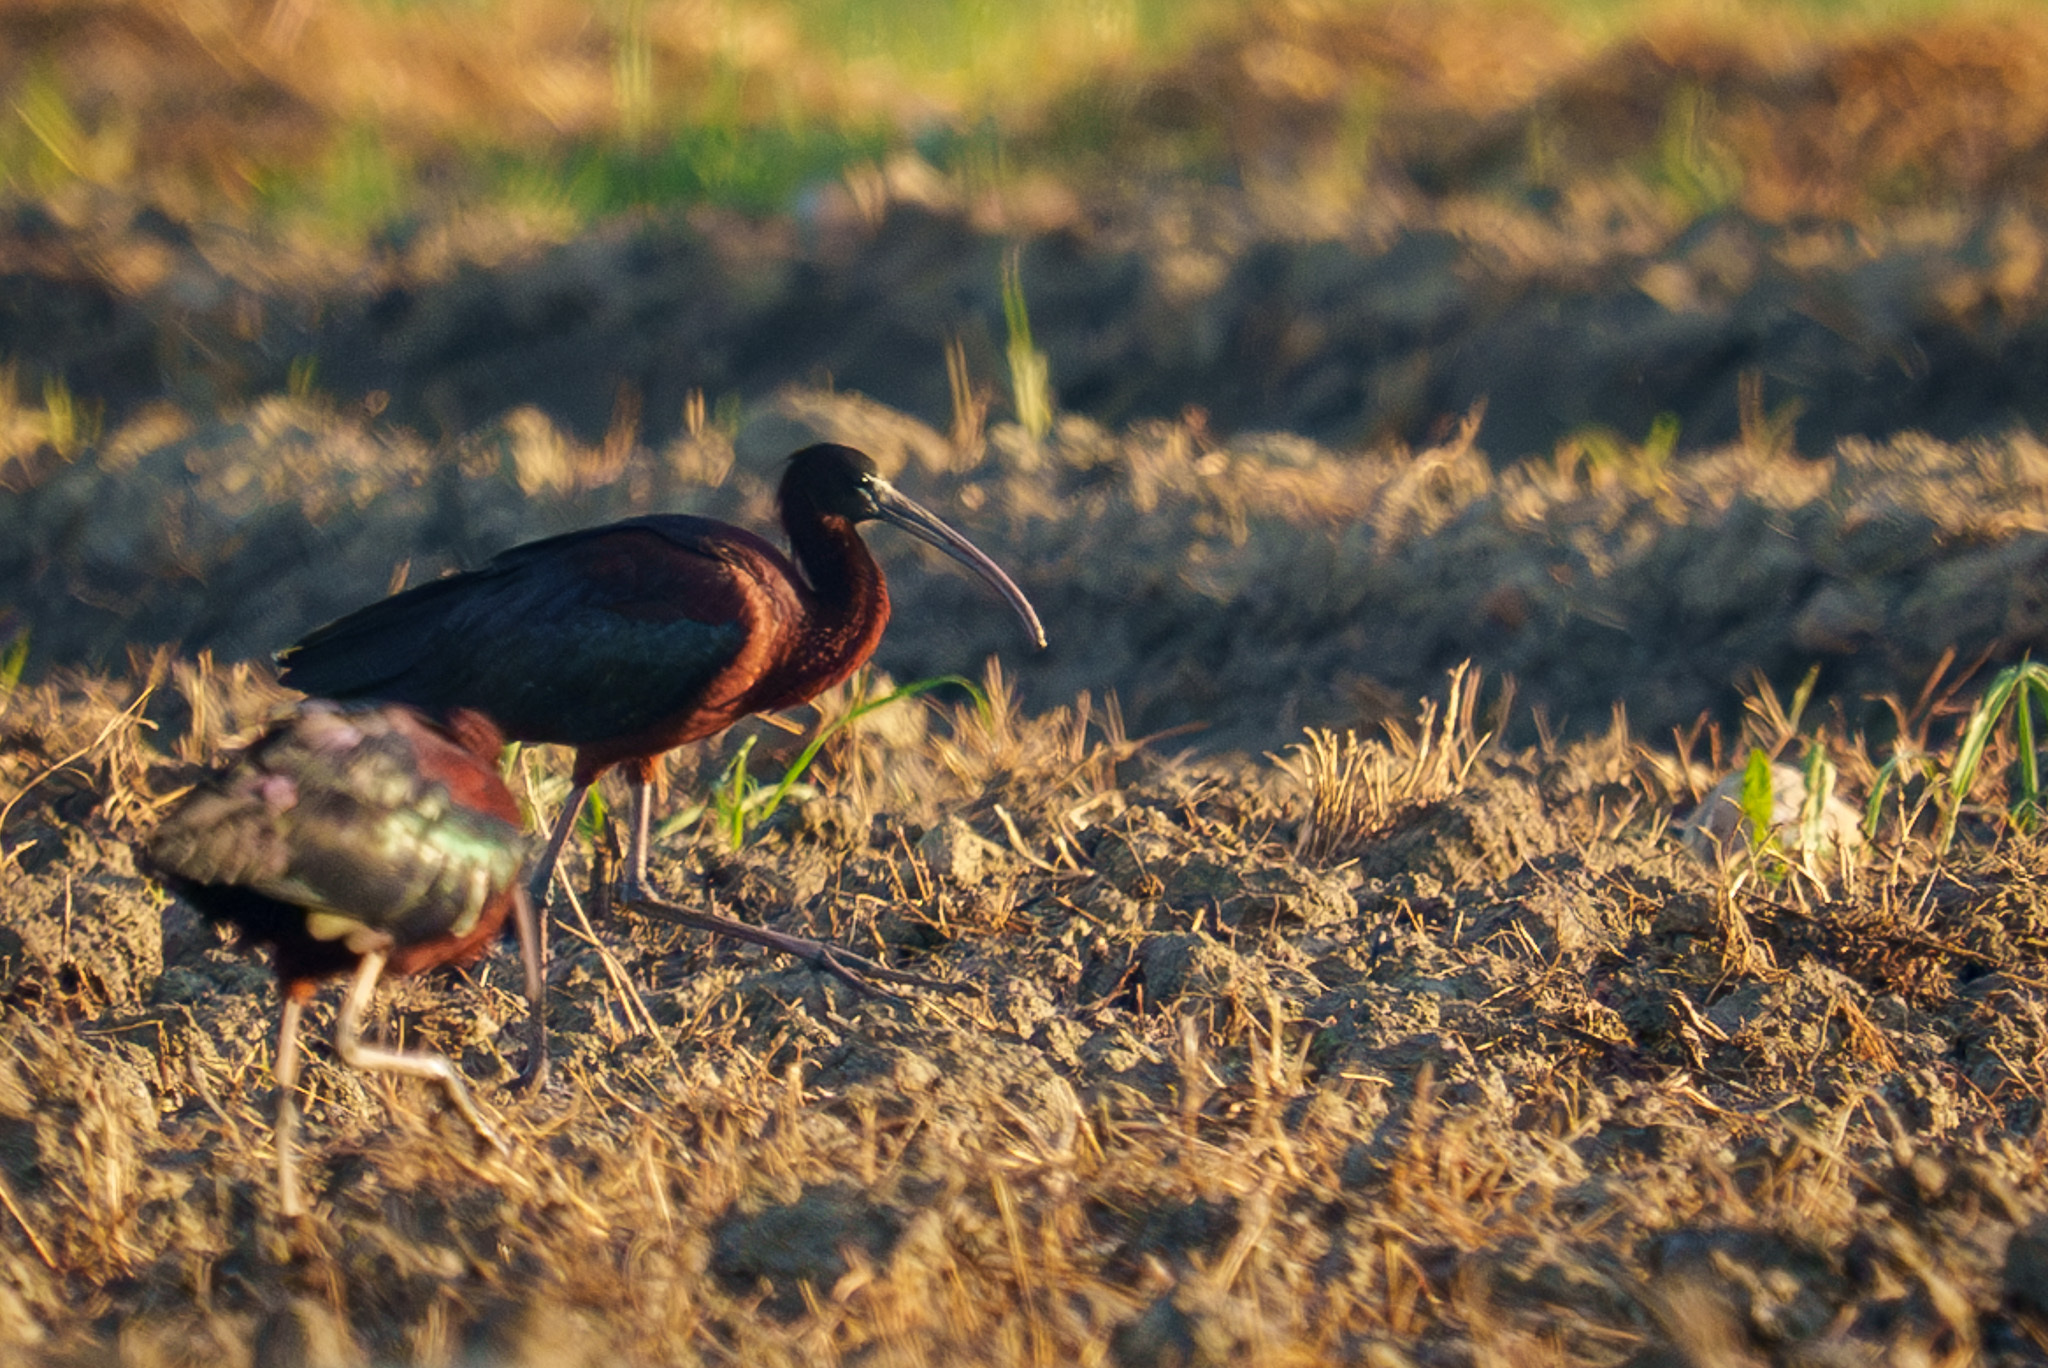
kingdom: Animalia
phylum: Chordata
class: Aves
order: Pelecaniformes
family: Threskiornithidae
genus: Plegadis
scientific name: Plegadis falcinellus
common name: Glossy ibis
